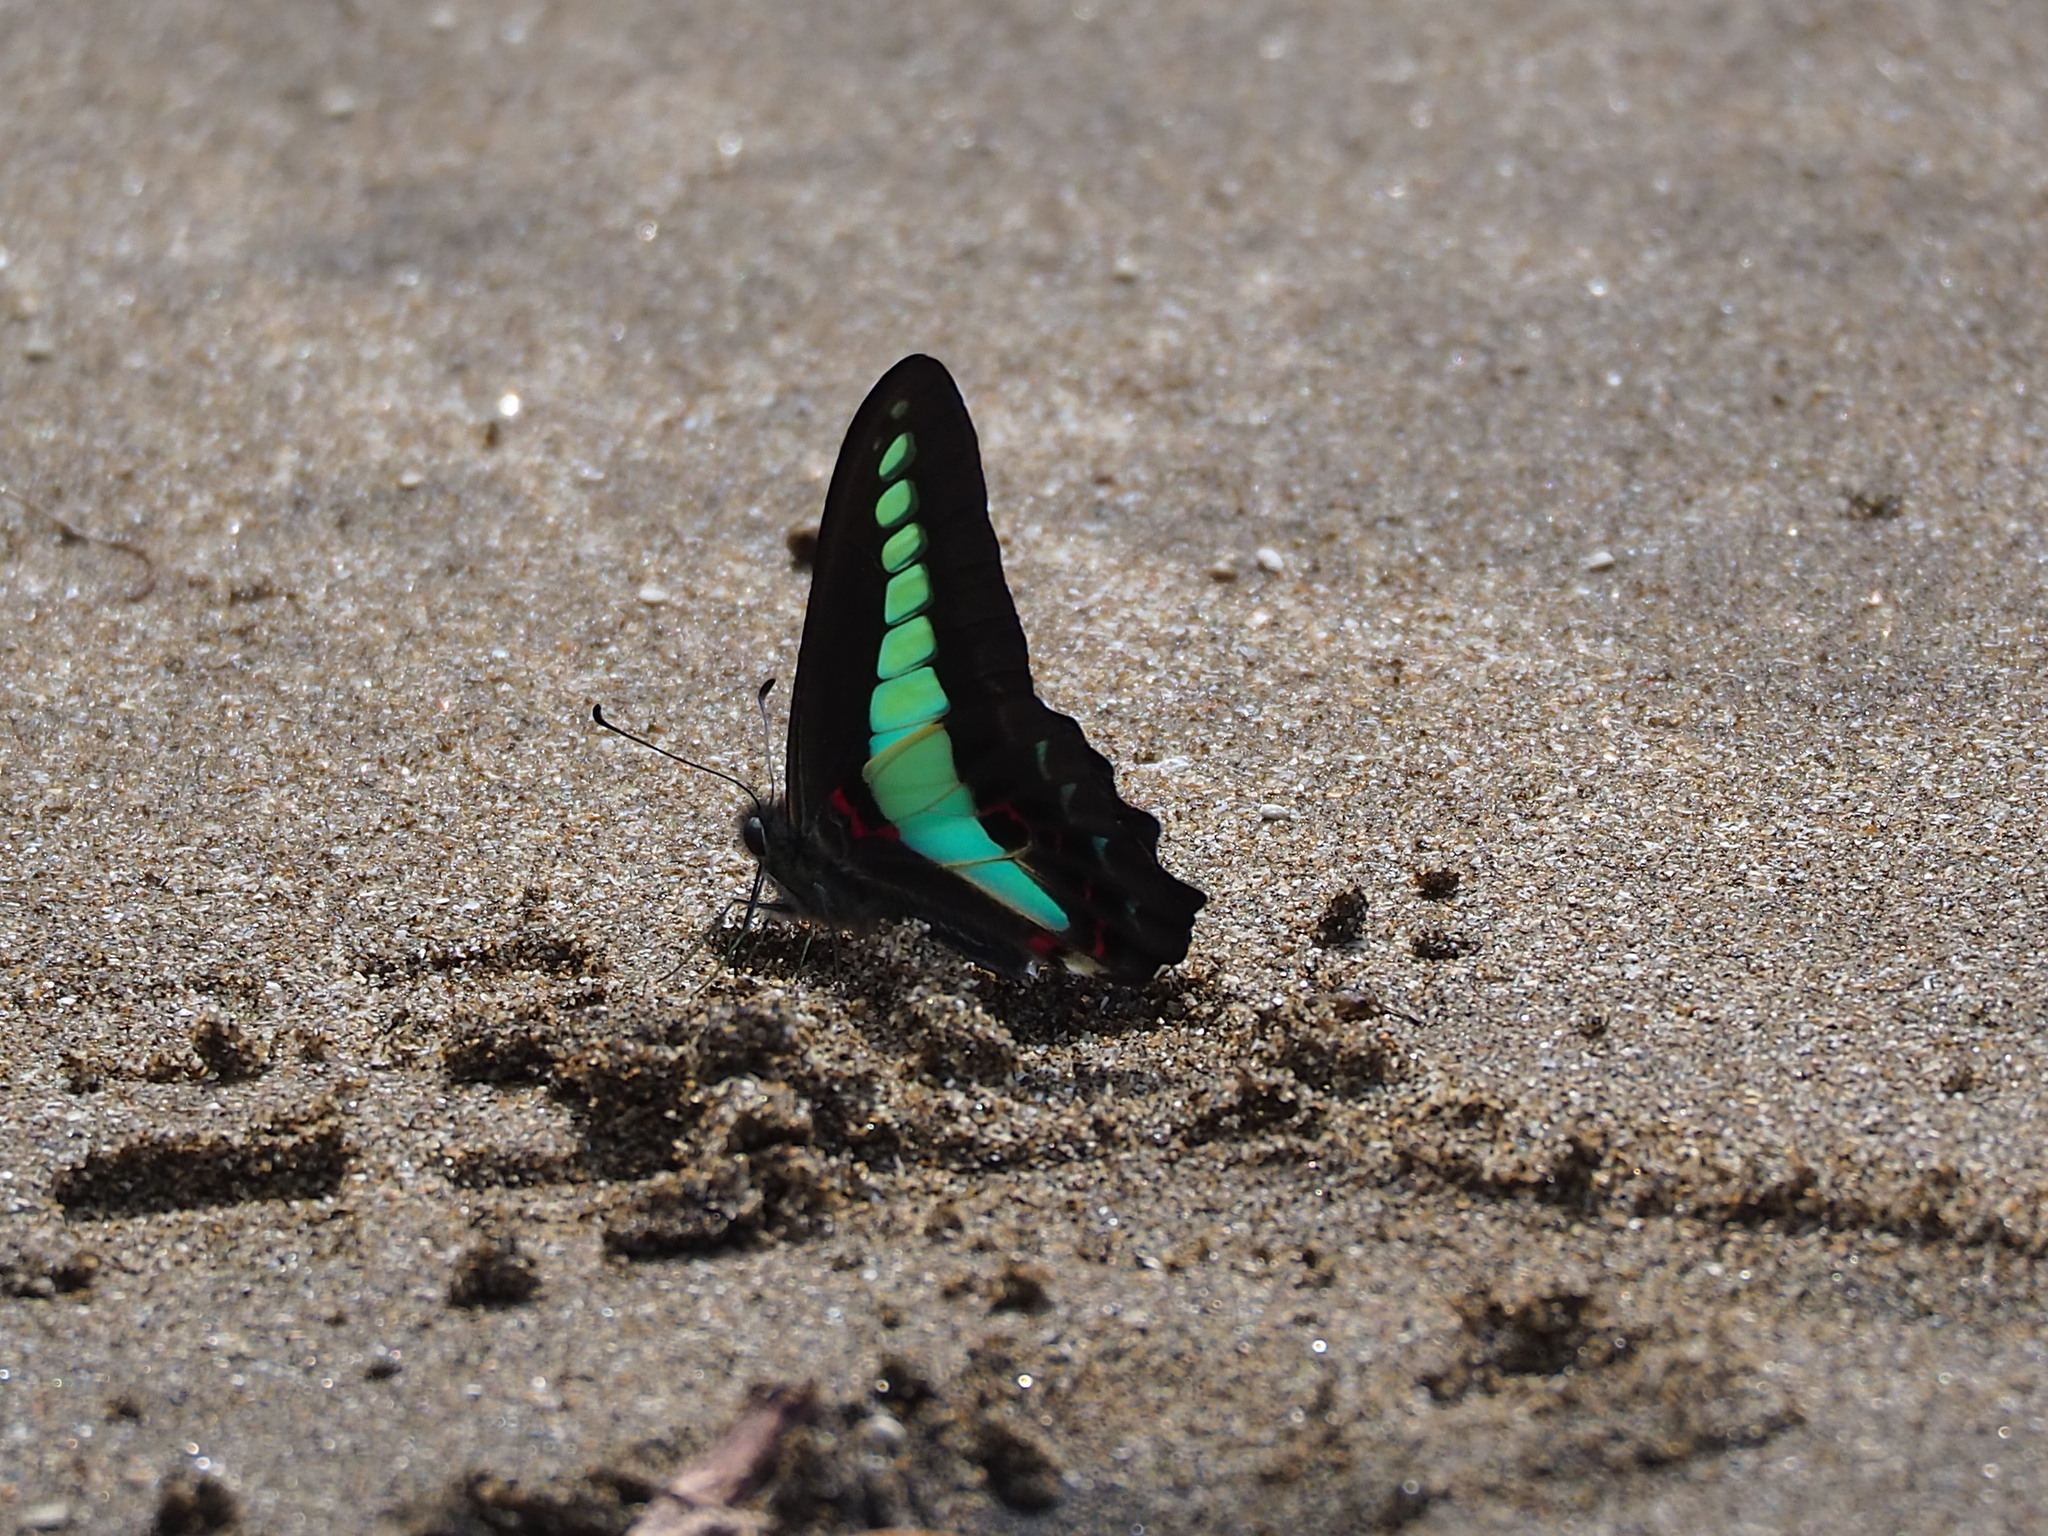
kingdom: Fungi
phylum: Ascomycota
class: Sordariomycetes
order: Microascales
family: Microascaceae
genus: Graphium
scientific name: Graphium sarpedon
